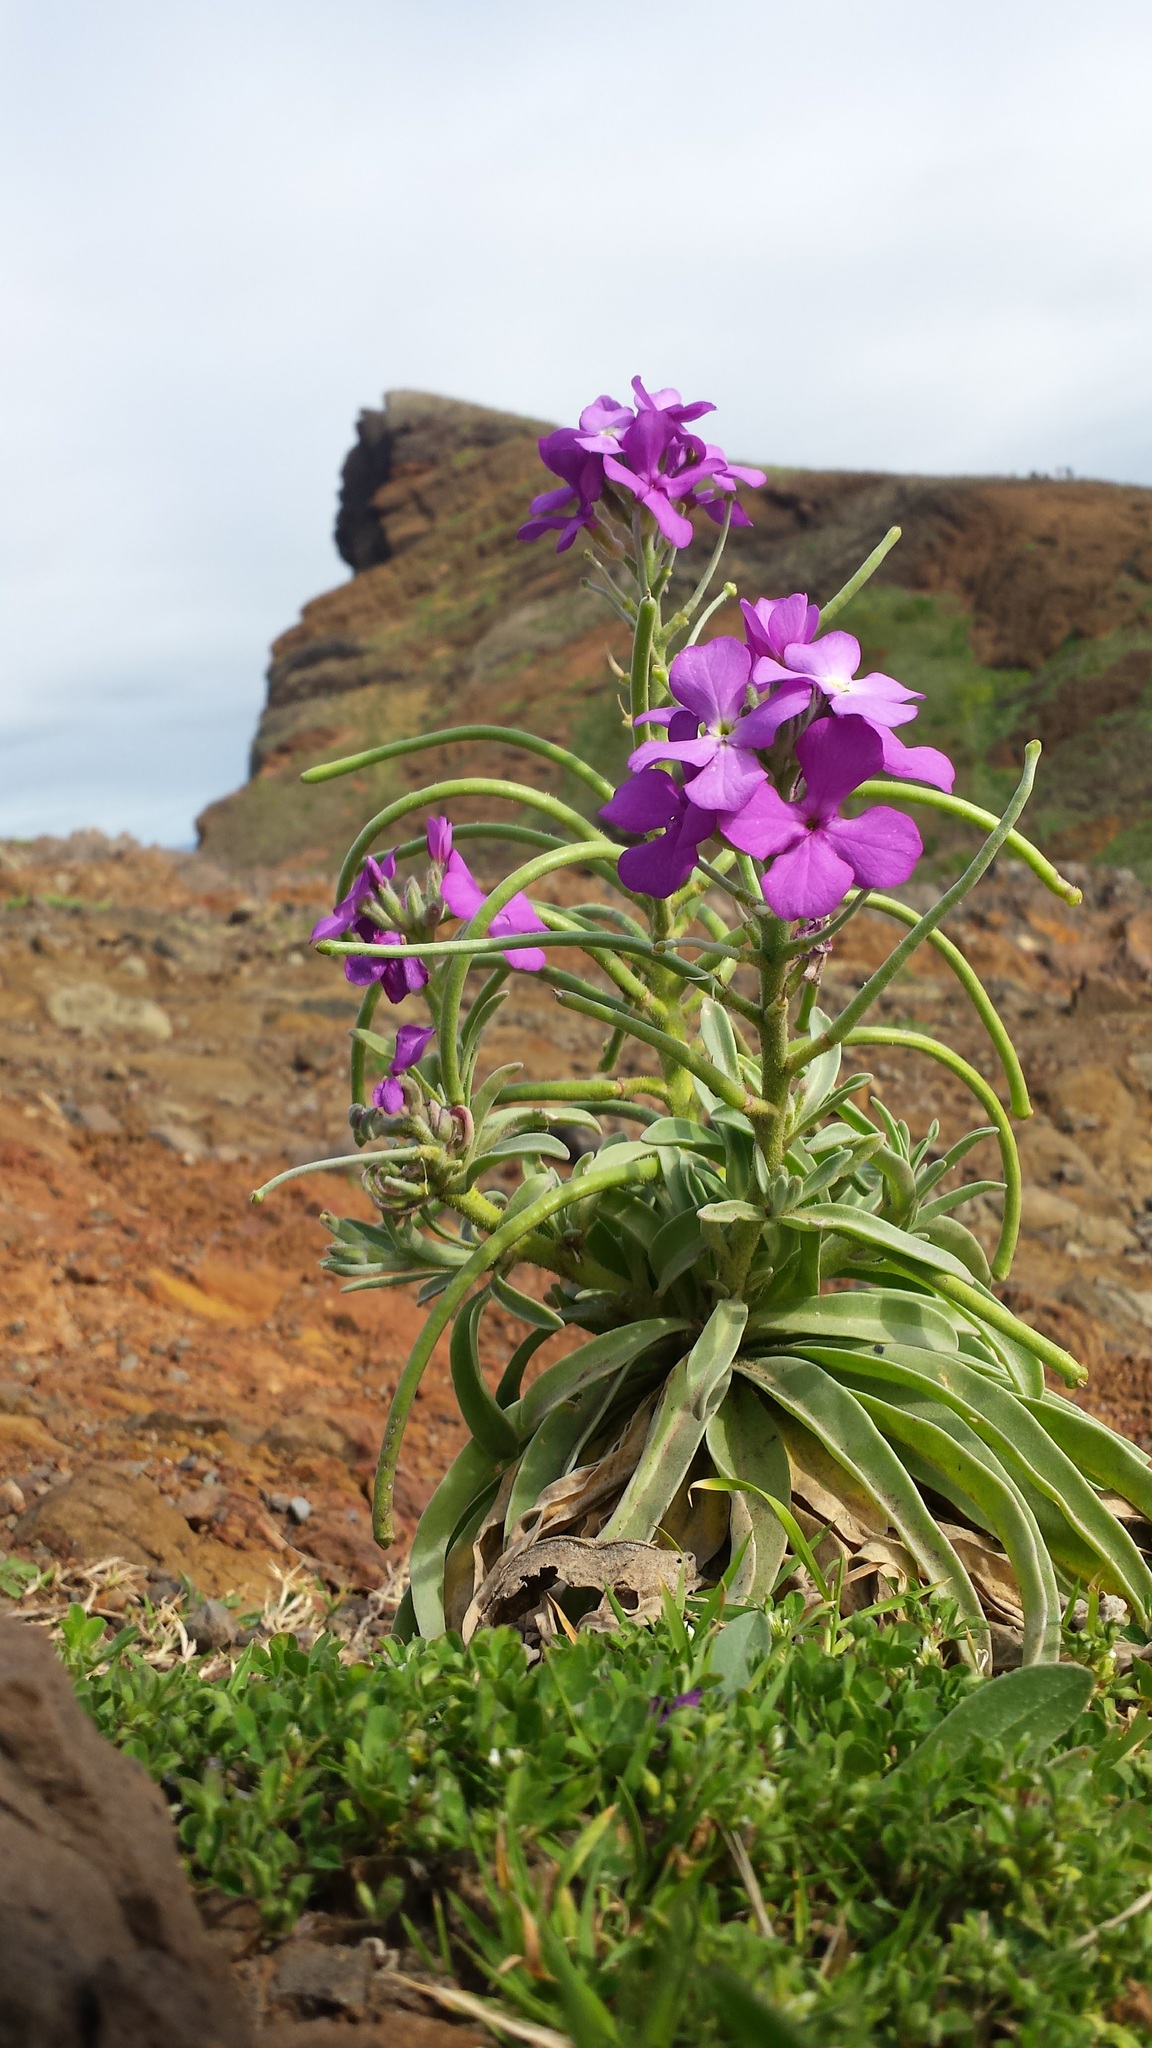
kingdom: Plantae
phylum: Tracheophyta
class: Magnoliopsida
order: Brassicales
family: Brassicaceae
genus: Matthiola
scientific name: Matthiola maderensis
